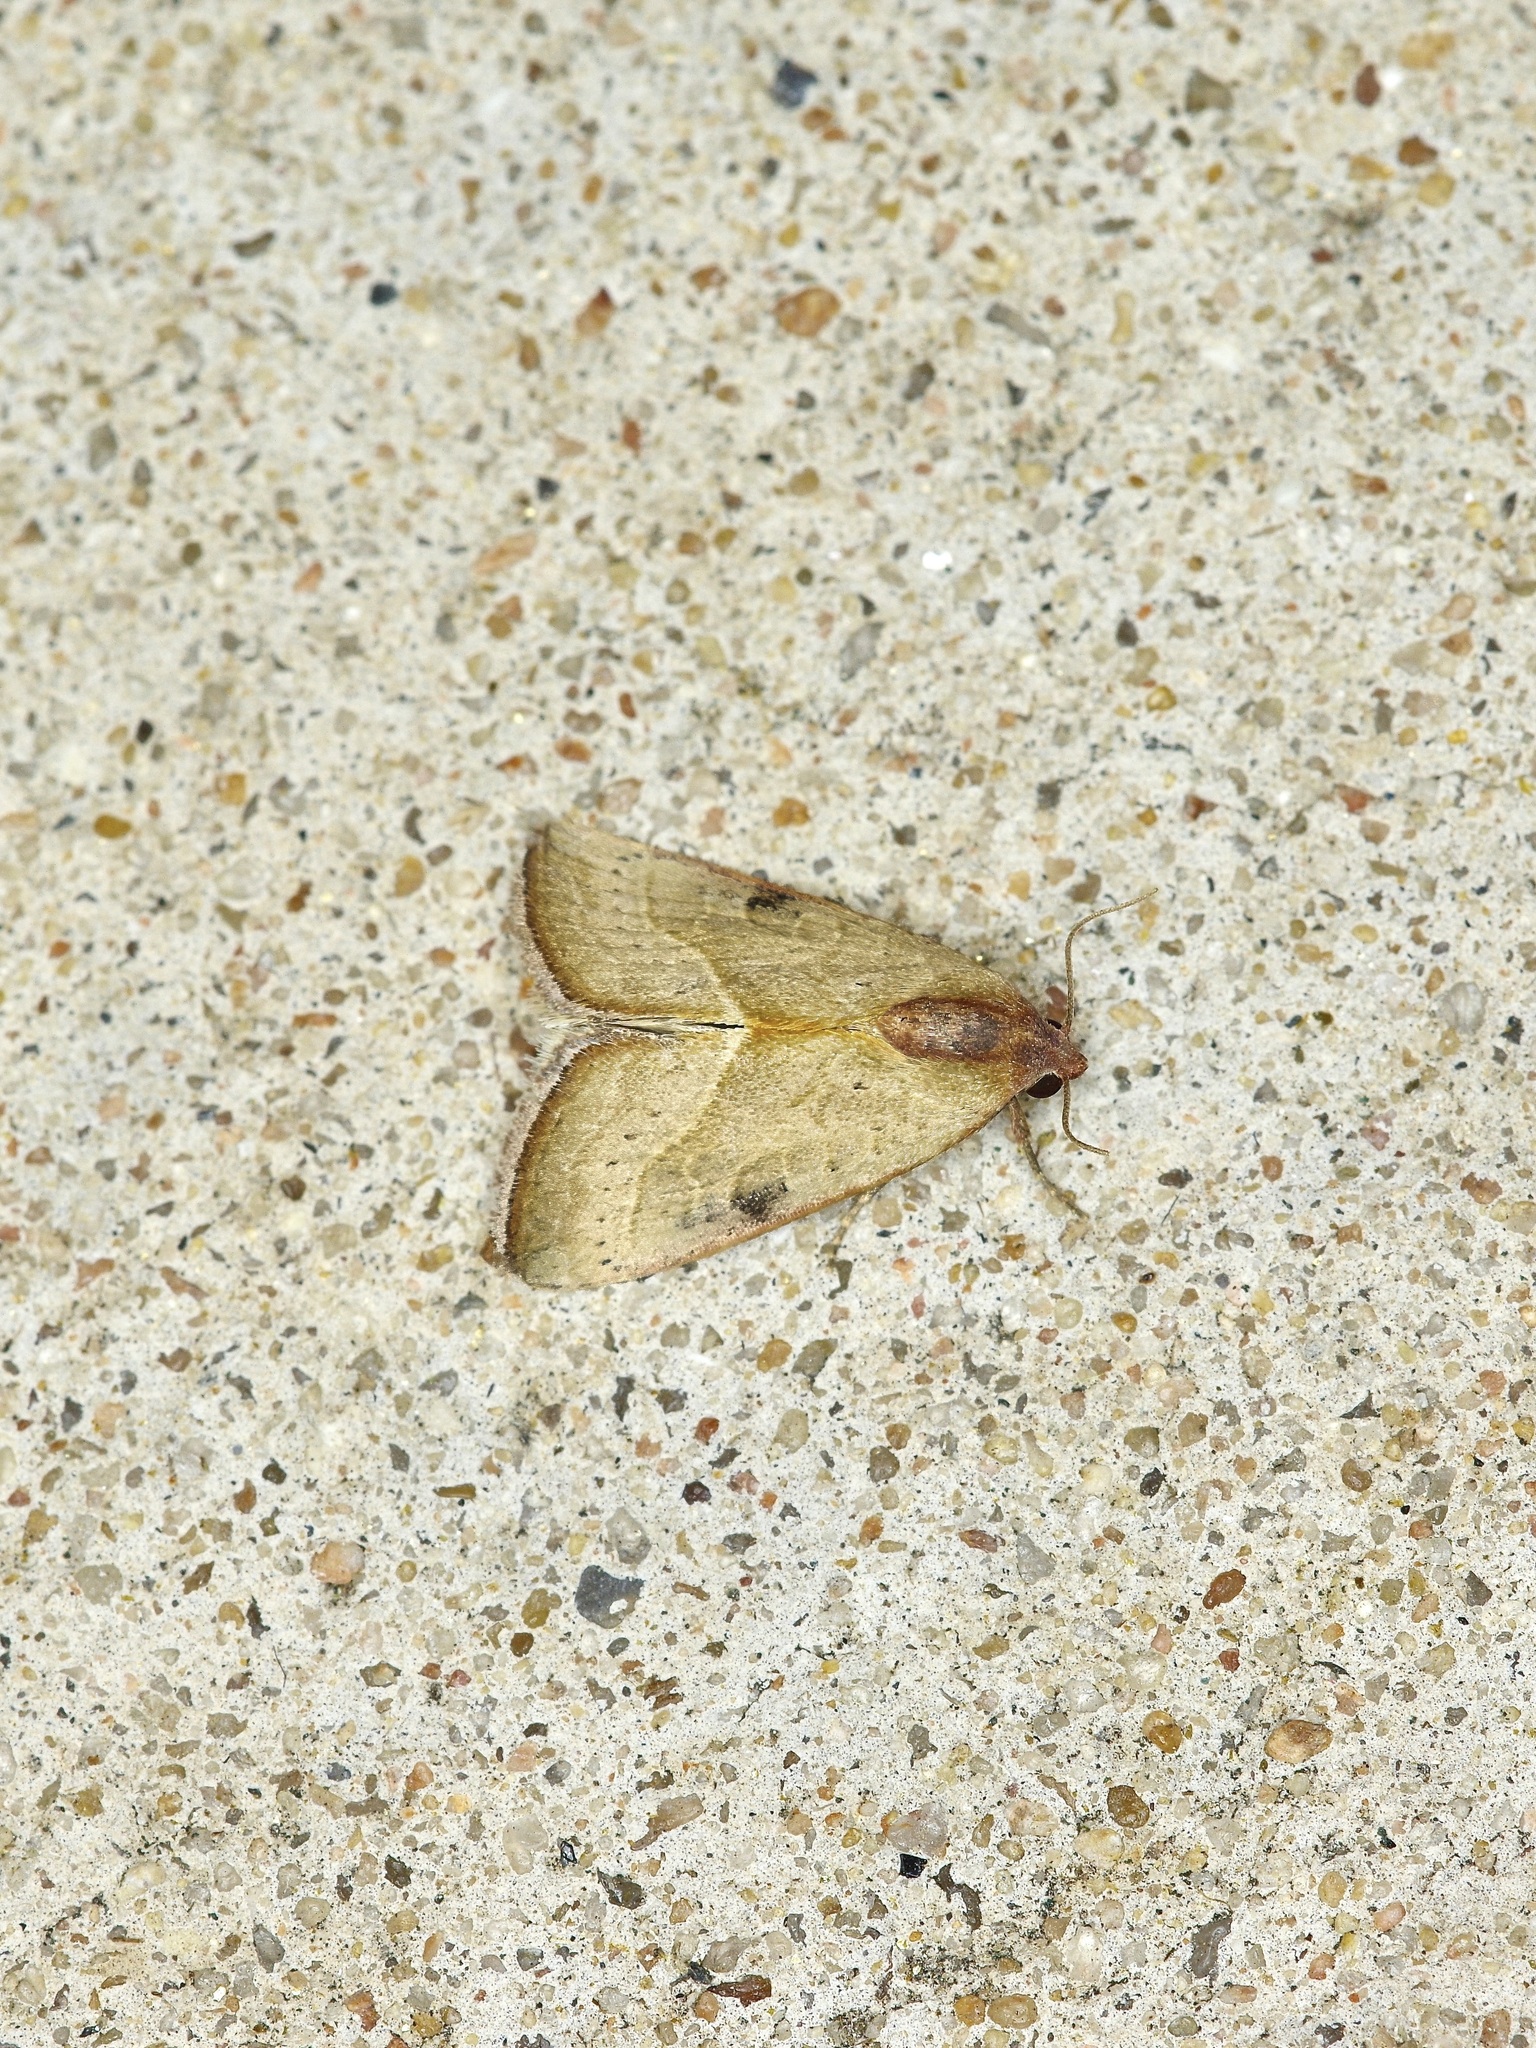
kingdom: Animalia
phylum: Arthropoda
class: Insecta
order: Lepidoptera
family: Noctuidae
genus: Galgula
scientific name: Galgula partita
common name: Wedgeling
